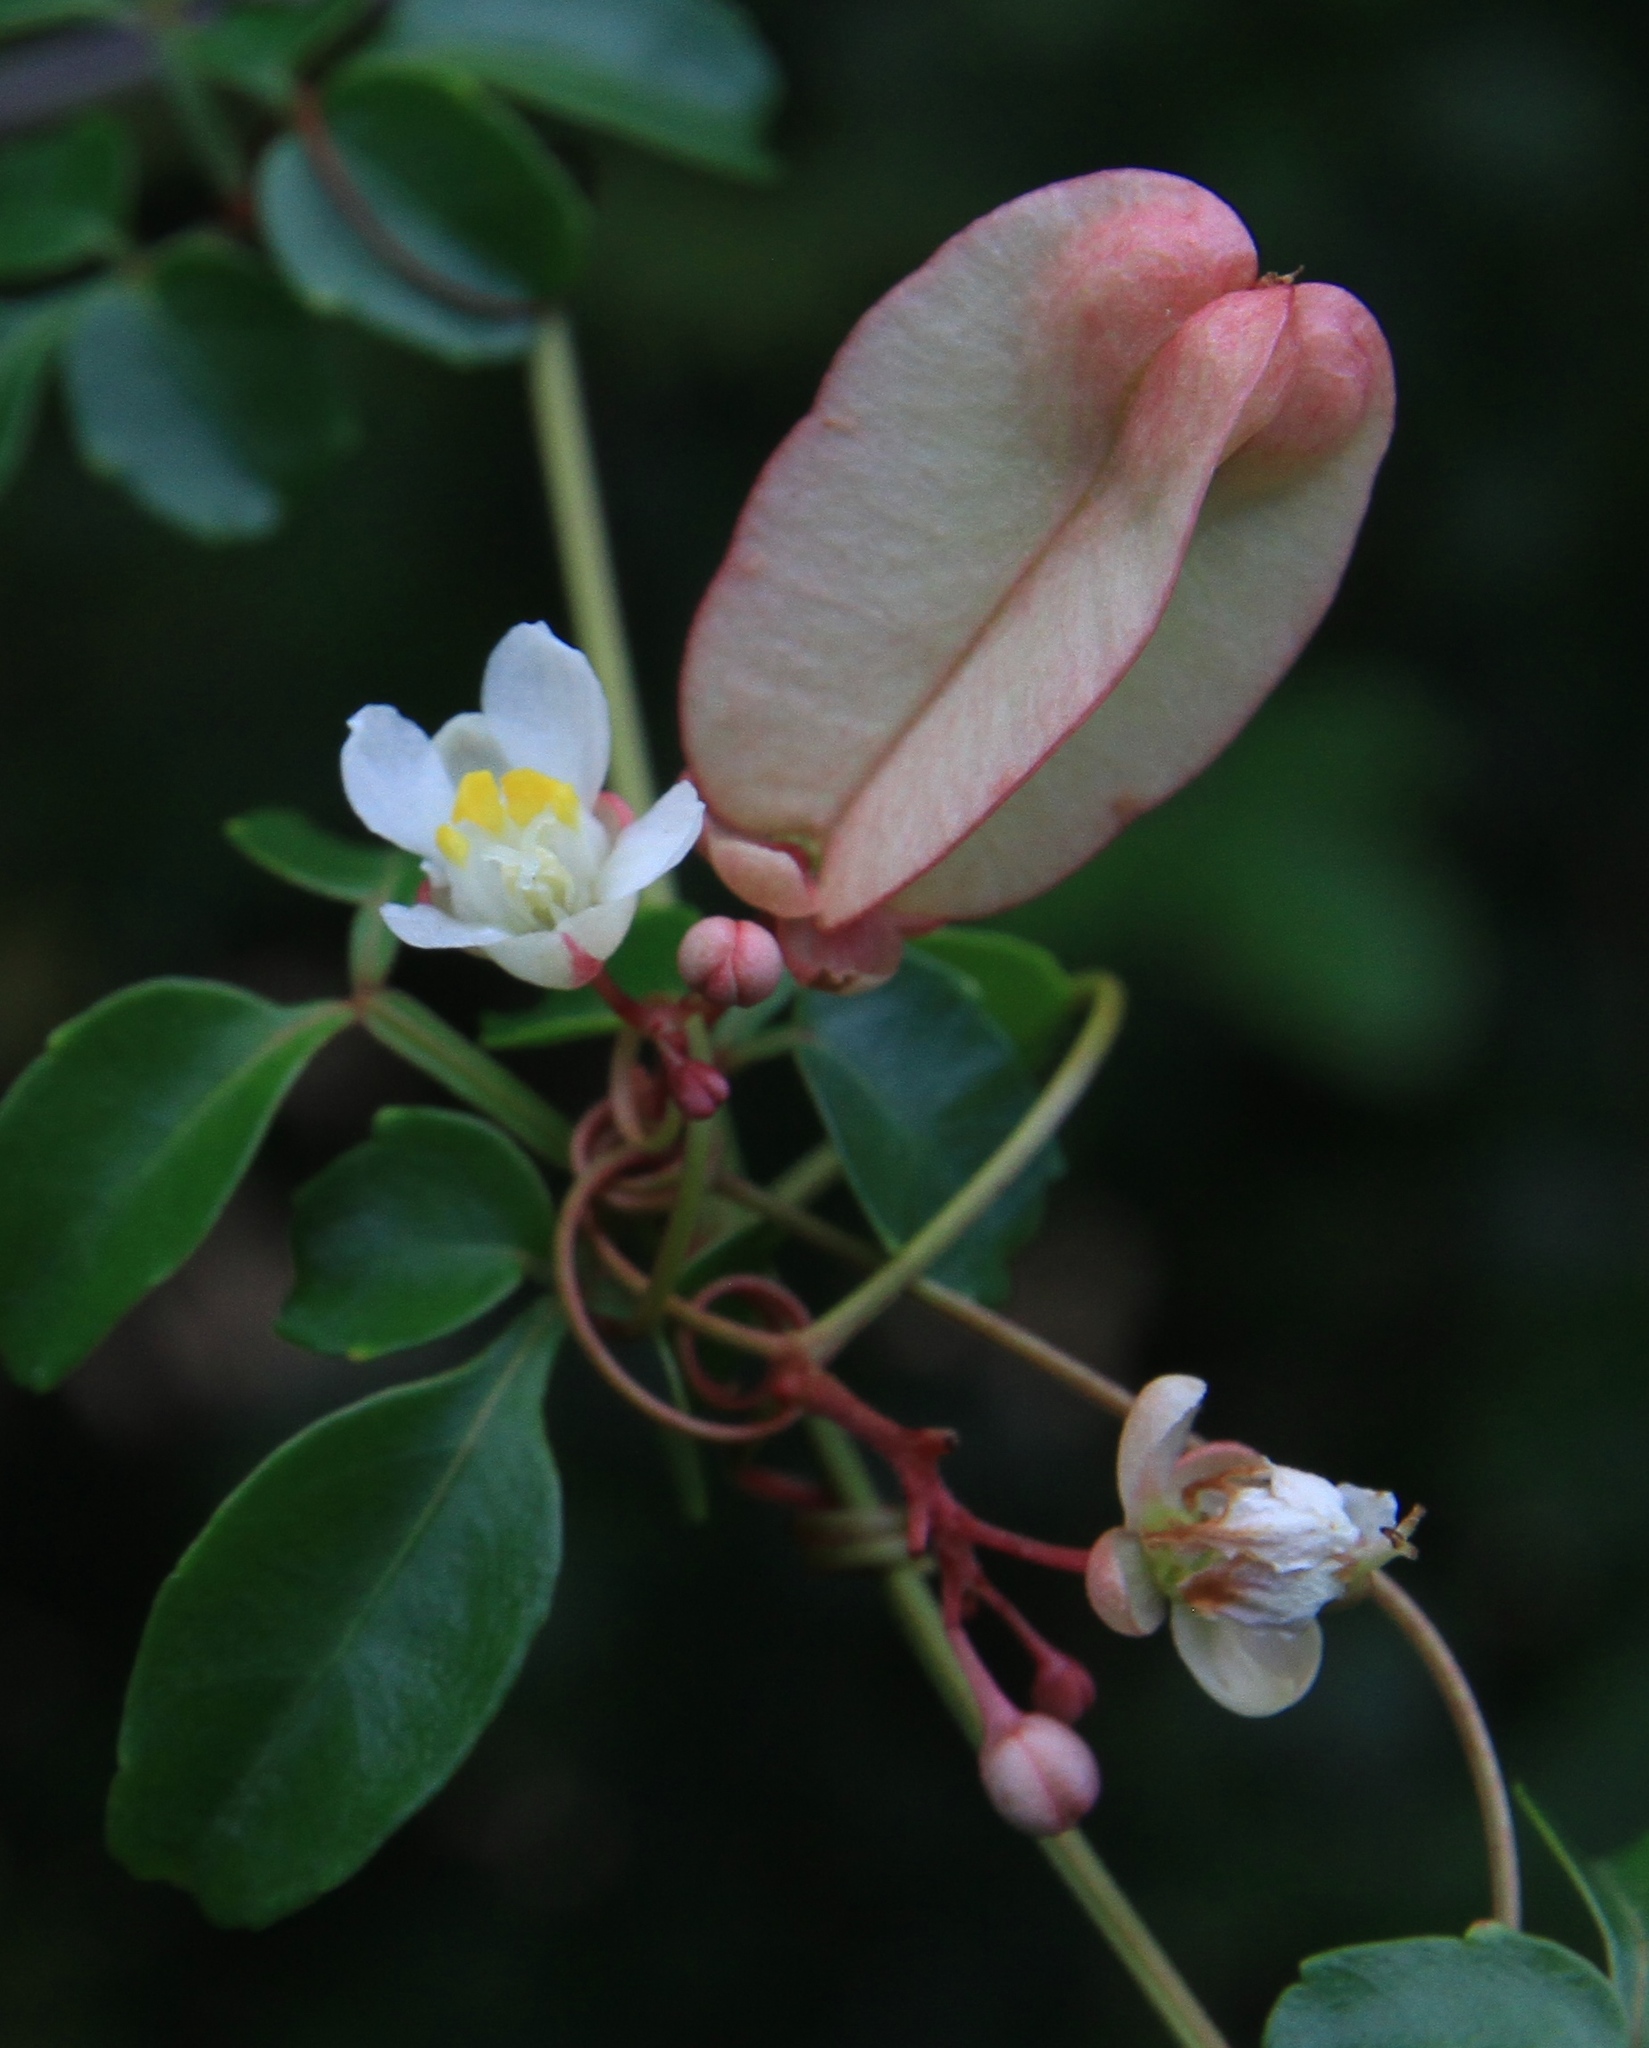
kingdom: Plantae
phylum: Tracheophyta
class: Magnoliopsida
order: Sapindales
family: Sapindaceae
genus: Serjania
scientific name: Serjania polyphylla
